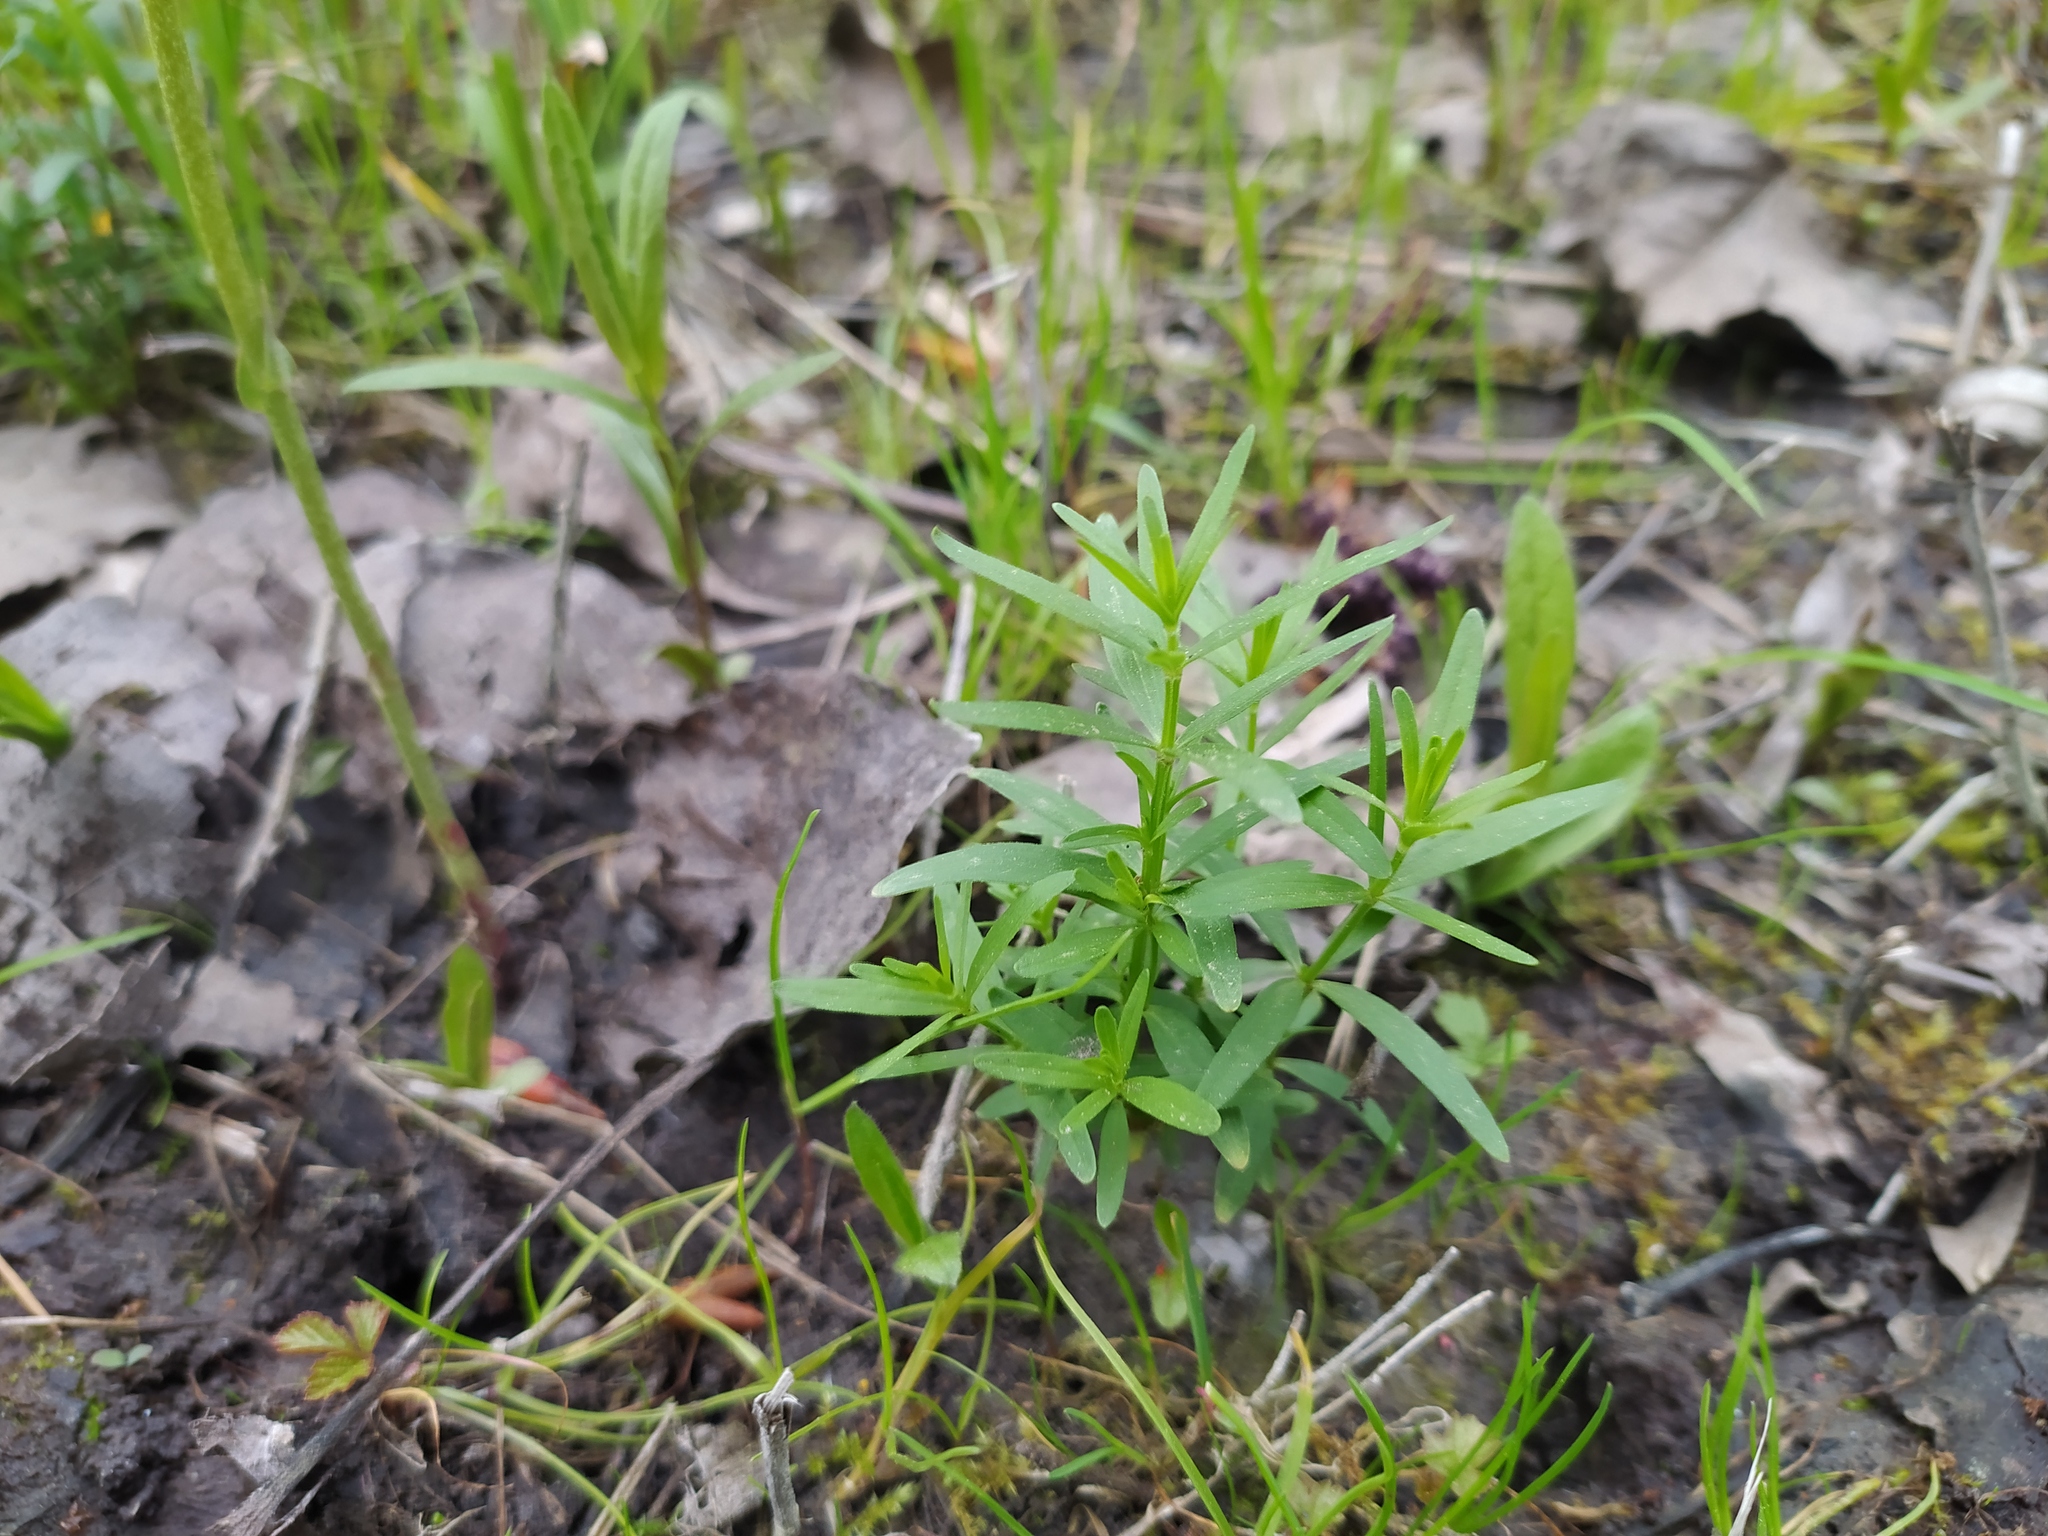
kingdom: Plantae
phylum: Tracheophyta
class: Magnoliopsida
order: Gentianales
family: Rubiaceae
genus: Galium
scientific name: Galium boreale
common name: Northern bedstraw
